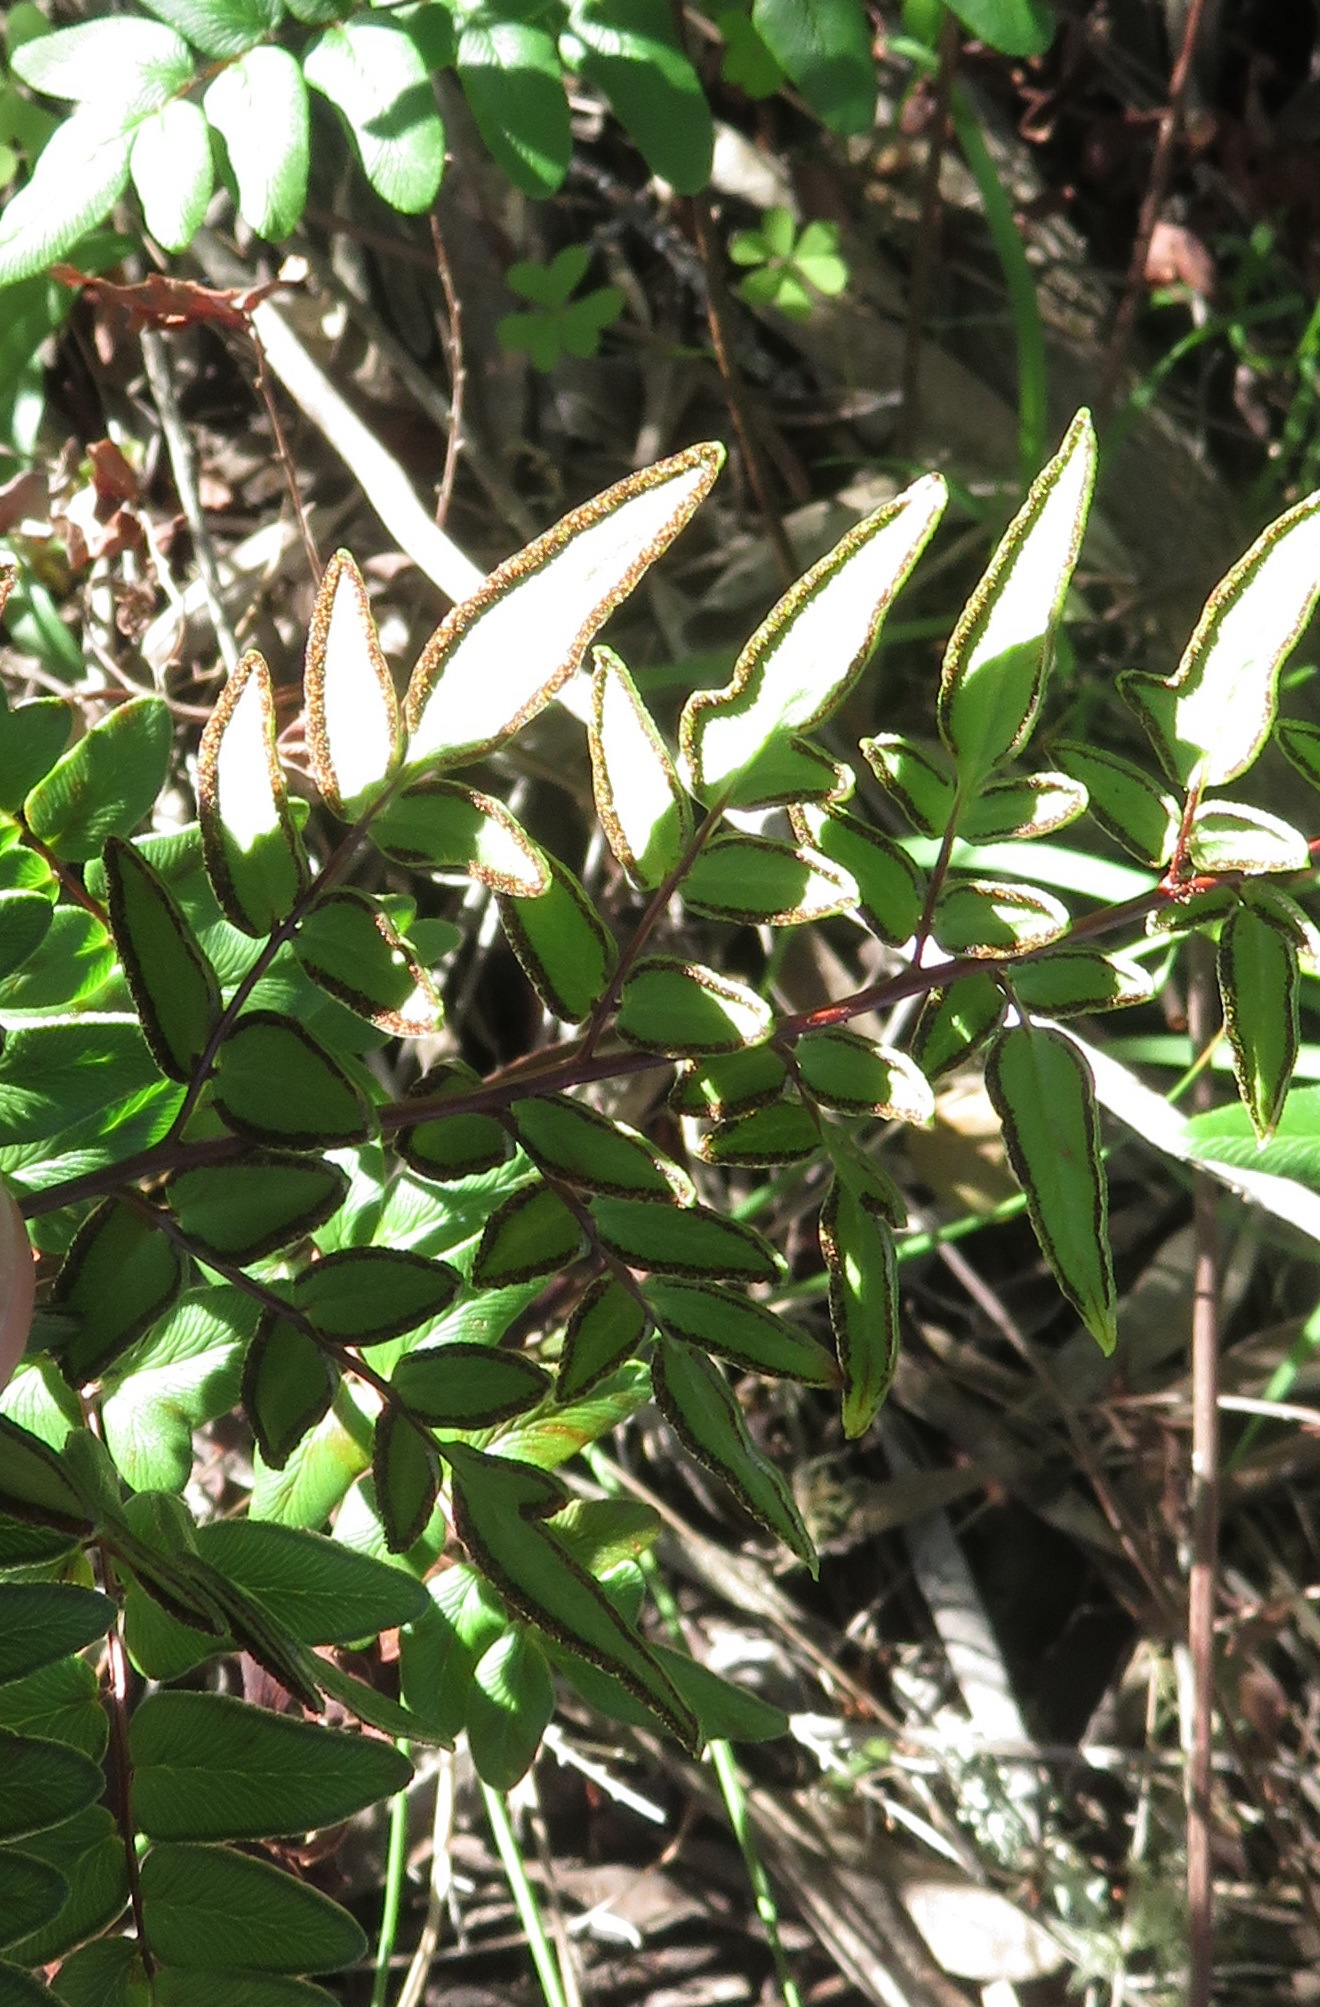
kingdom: Plantae
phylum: Tracheophyta
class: Polypodiopsida
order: Polypodiales
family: Pteridaceae
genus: Cheilanthes
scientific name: Cheilanthes viridis
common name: Green cliffbrake
